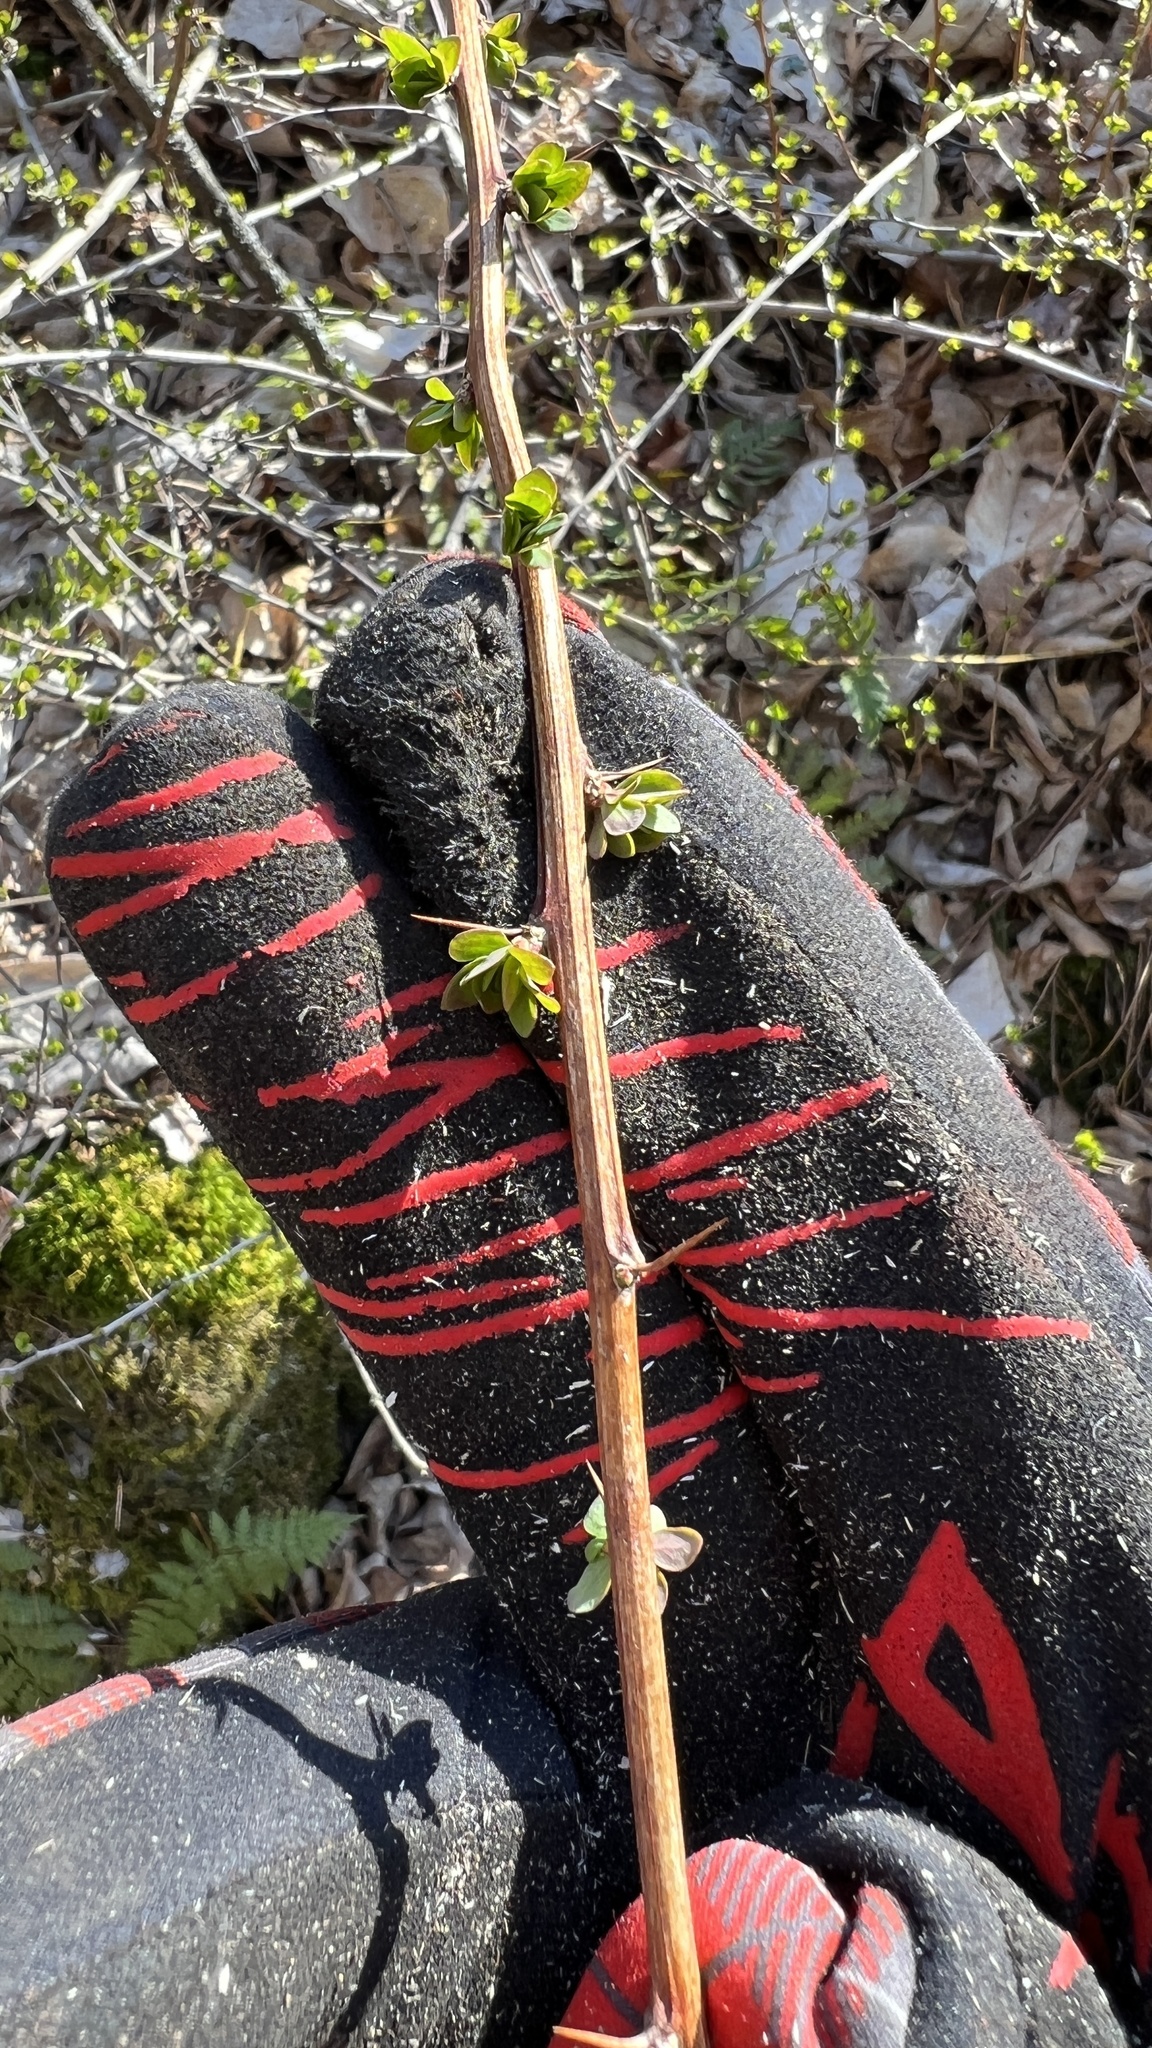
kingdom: Plantae
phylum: Tracheophyta
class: Magnoliopsida
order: Ranunculales
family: Berberidaceae
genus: Berberis
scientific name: Berberis thunbergii
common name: Japanese barberry
